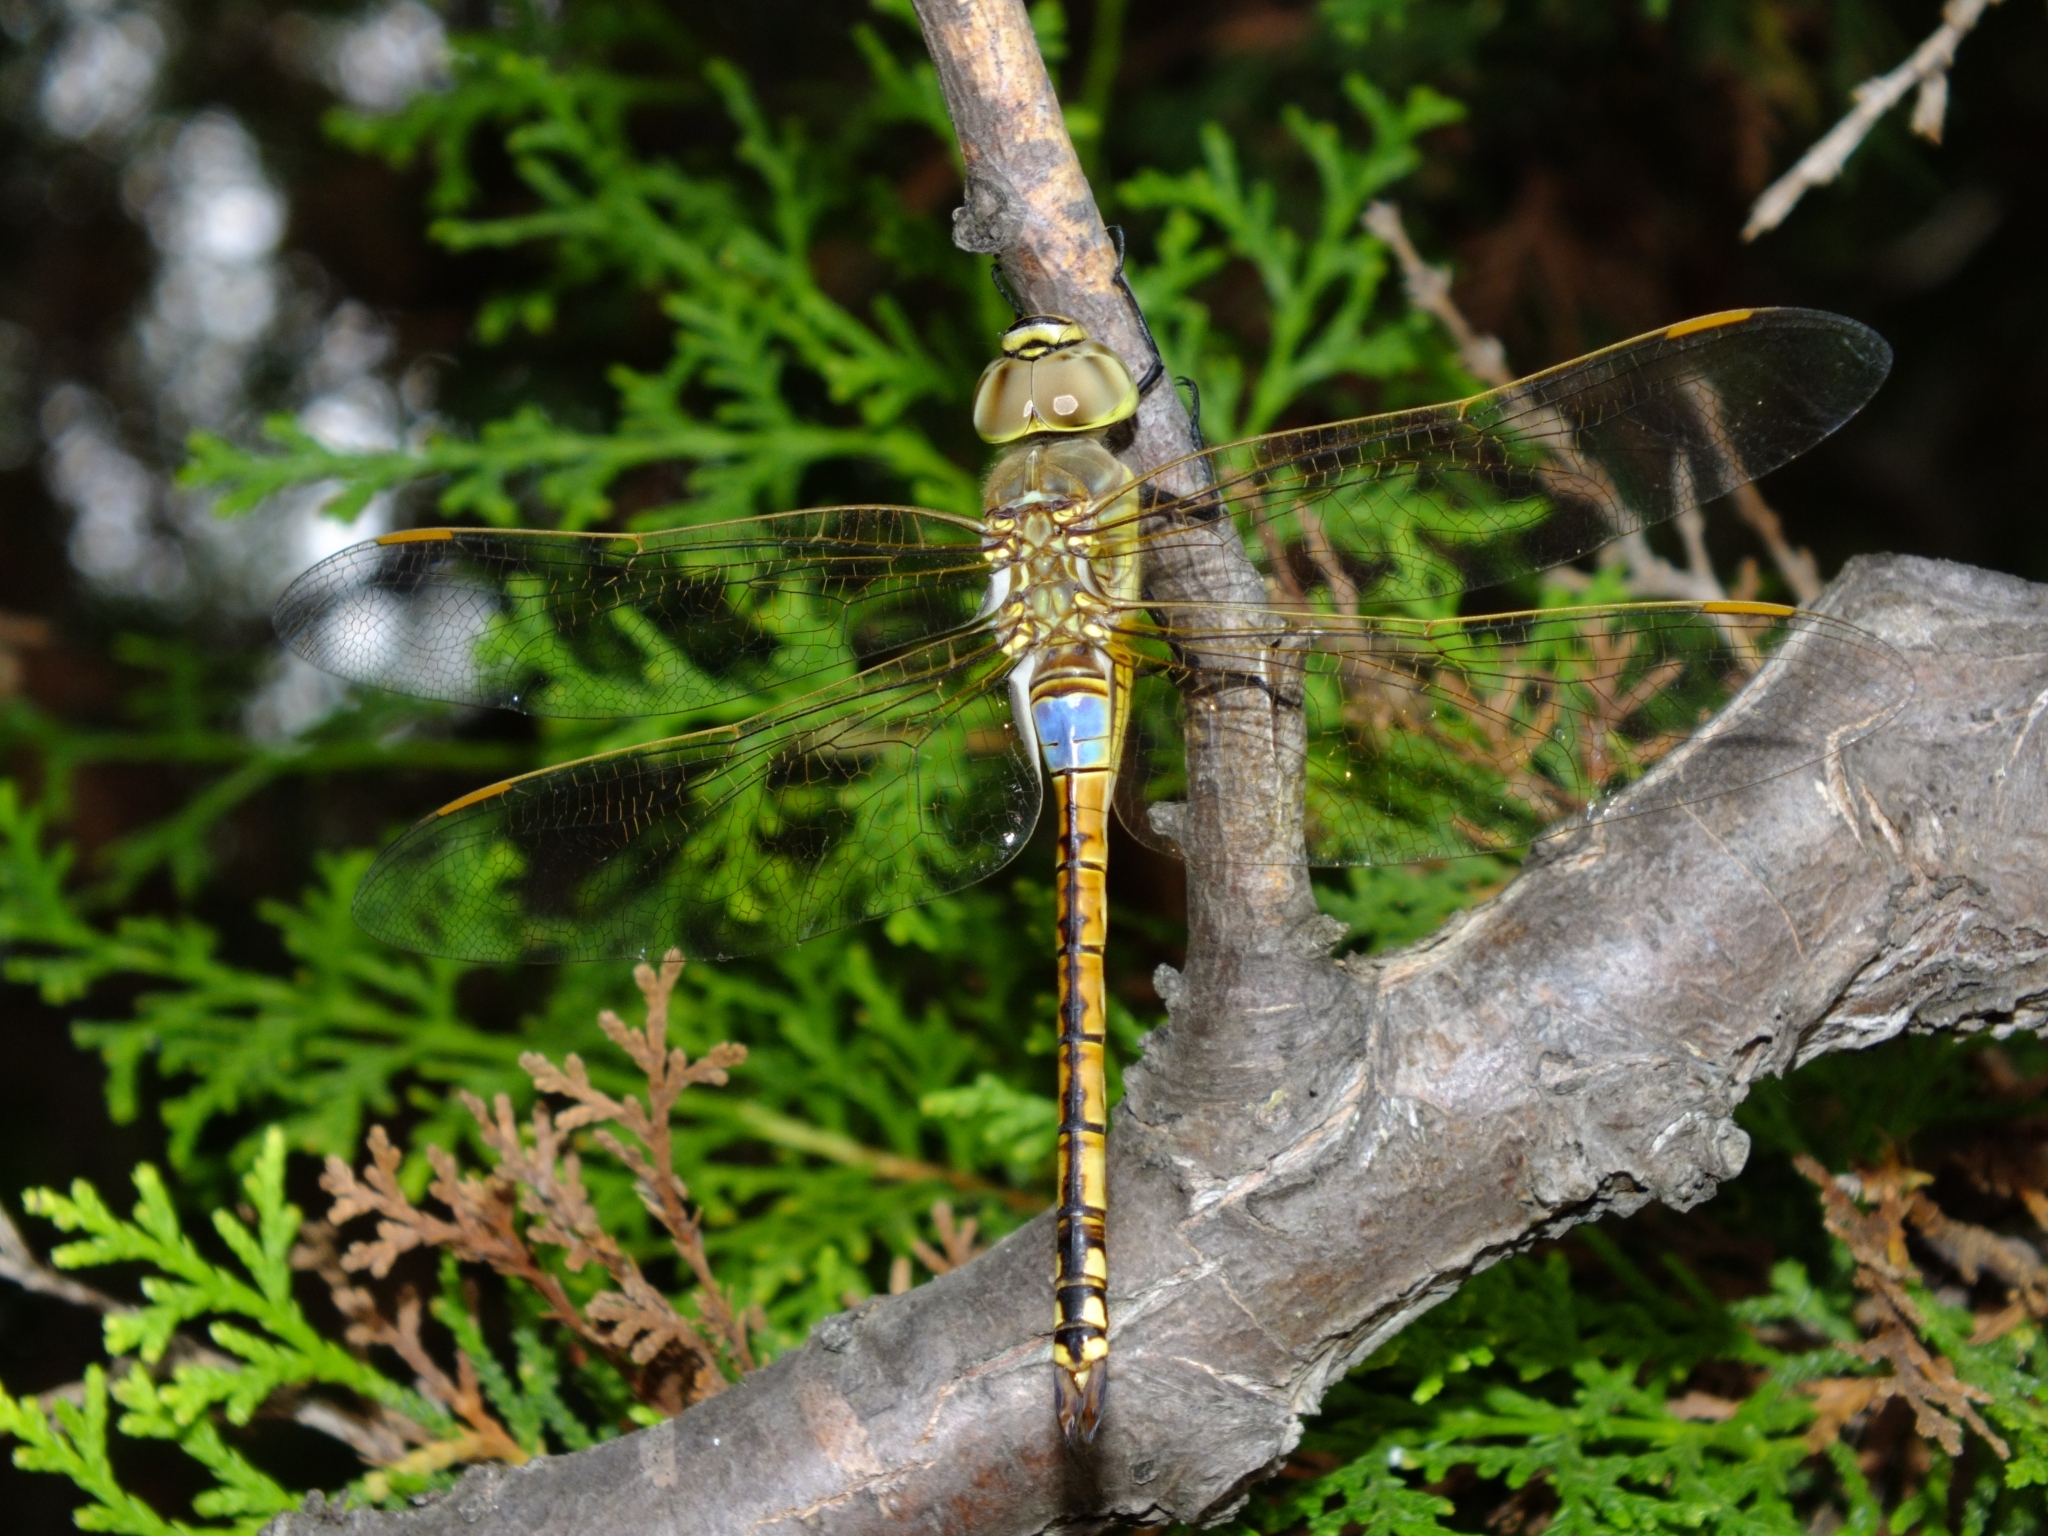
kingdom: Animalia
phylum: Arthropoda
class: Insecta
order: Odonata
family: Aeshnidae
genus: Anax
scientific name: Anax ephippiger
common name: Vagrant emperor
